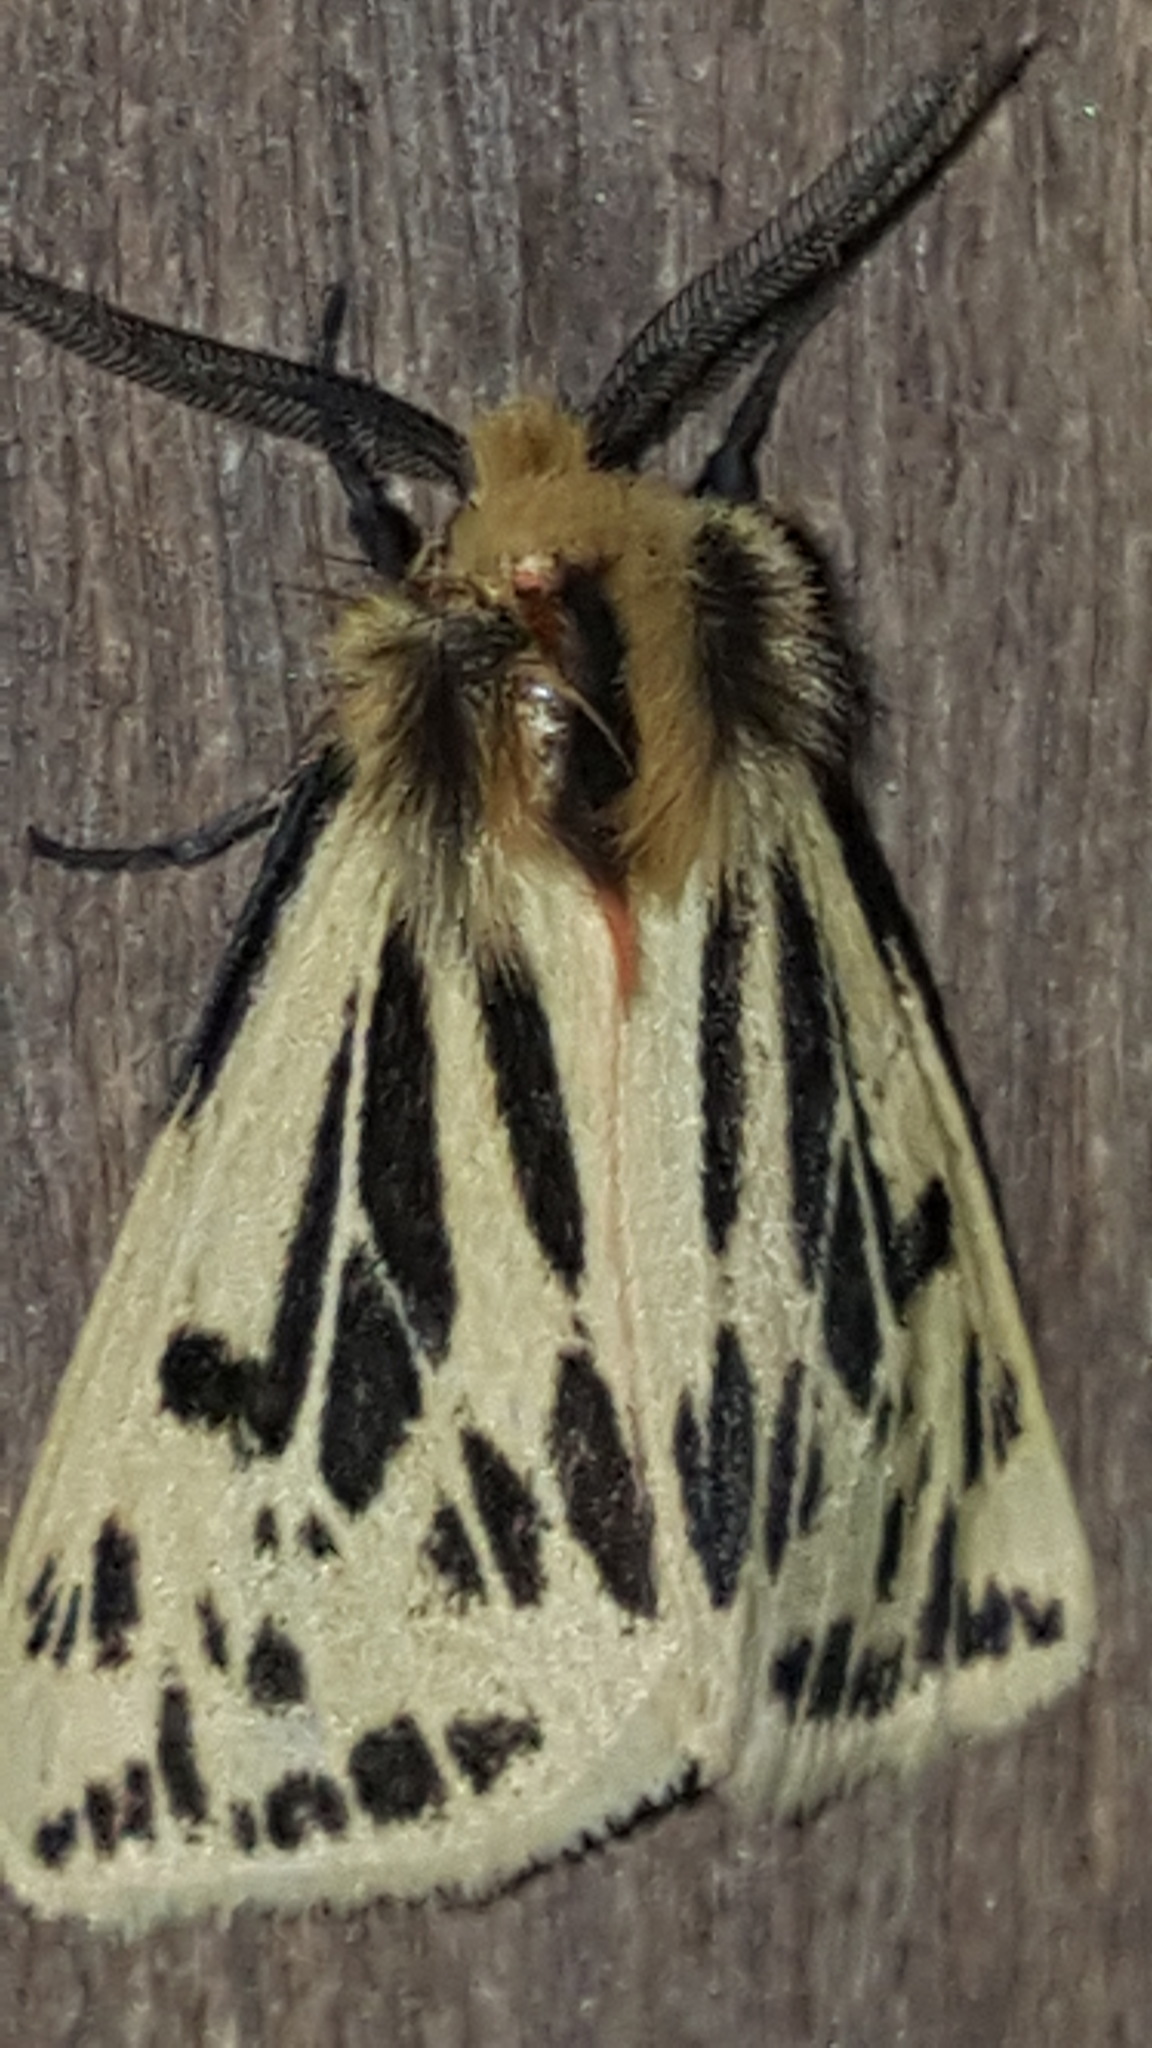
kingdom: Animalia
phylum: Arthropoda
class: Insecta
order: Lepidoptera
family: Erebidae
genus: Ardices
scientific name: Ardices curvata
